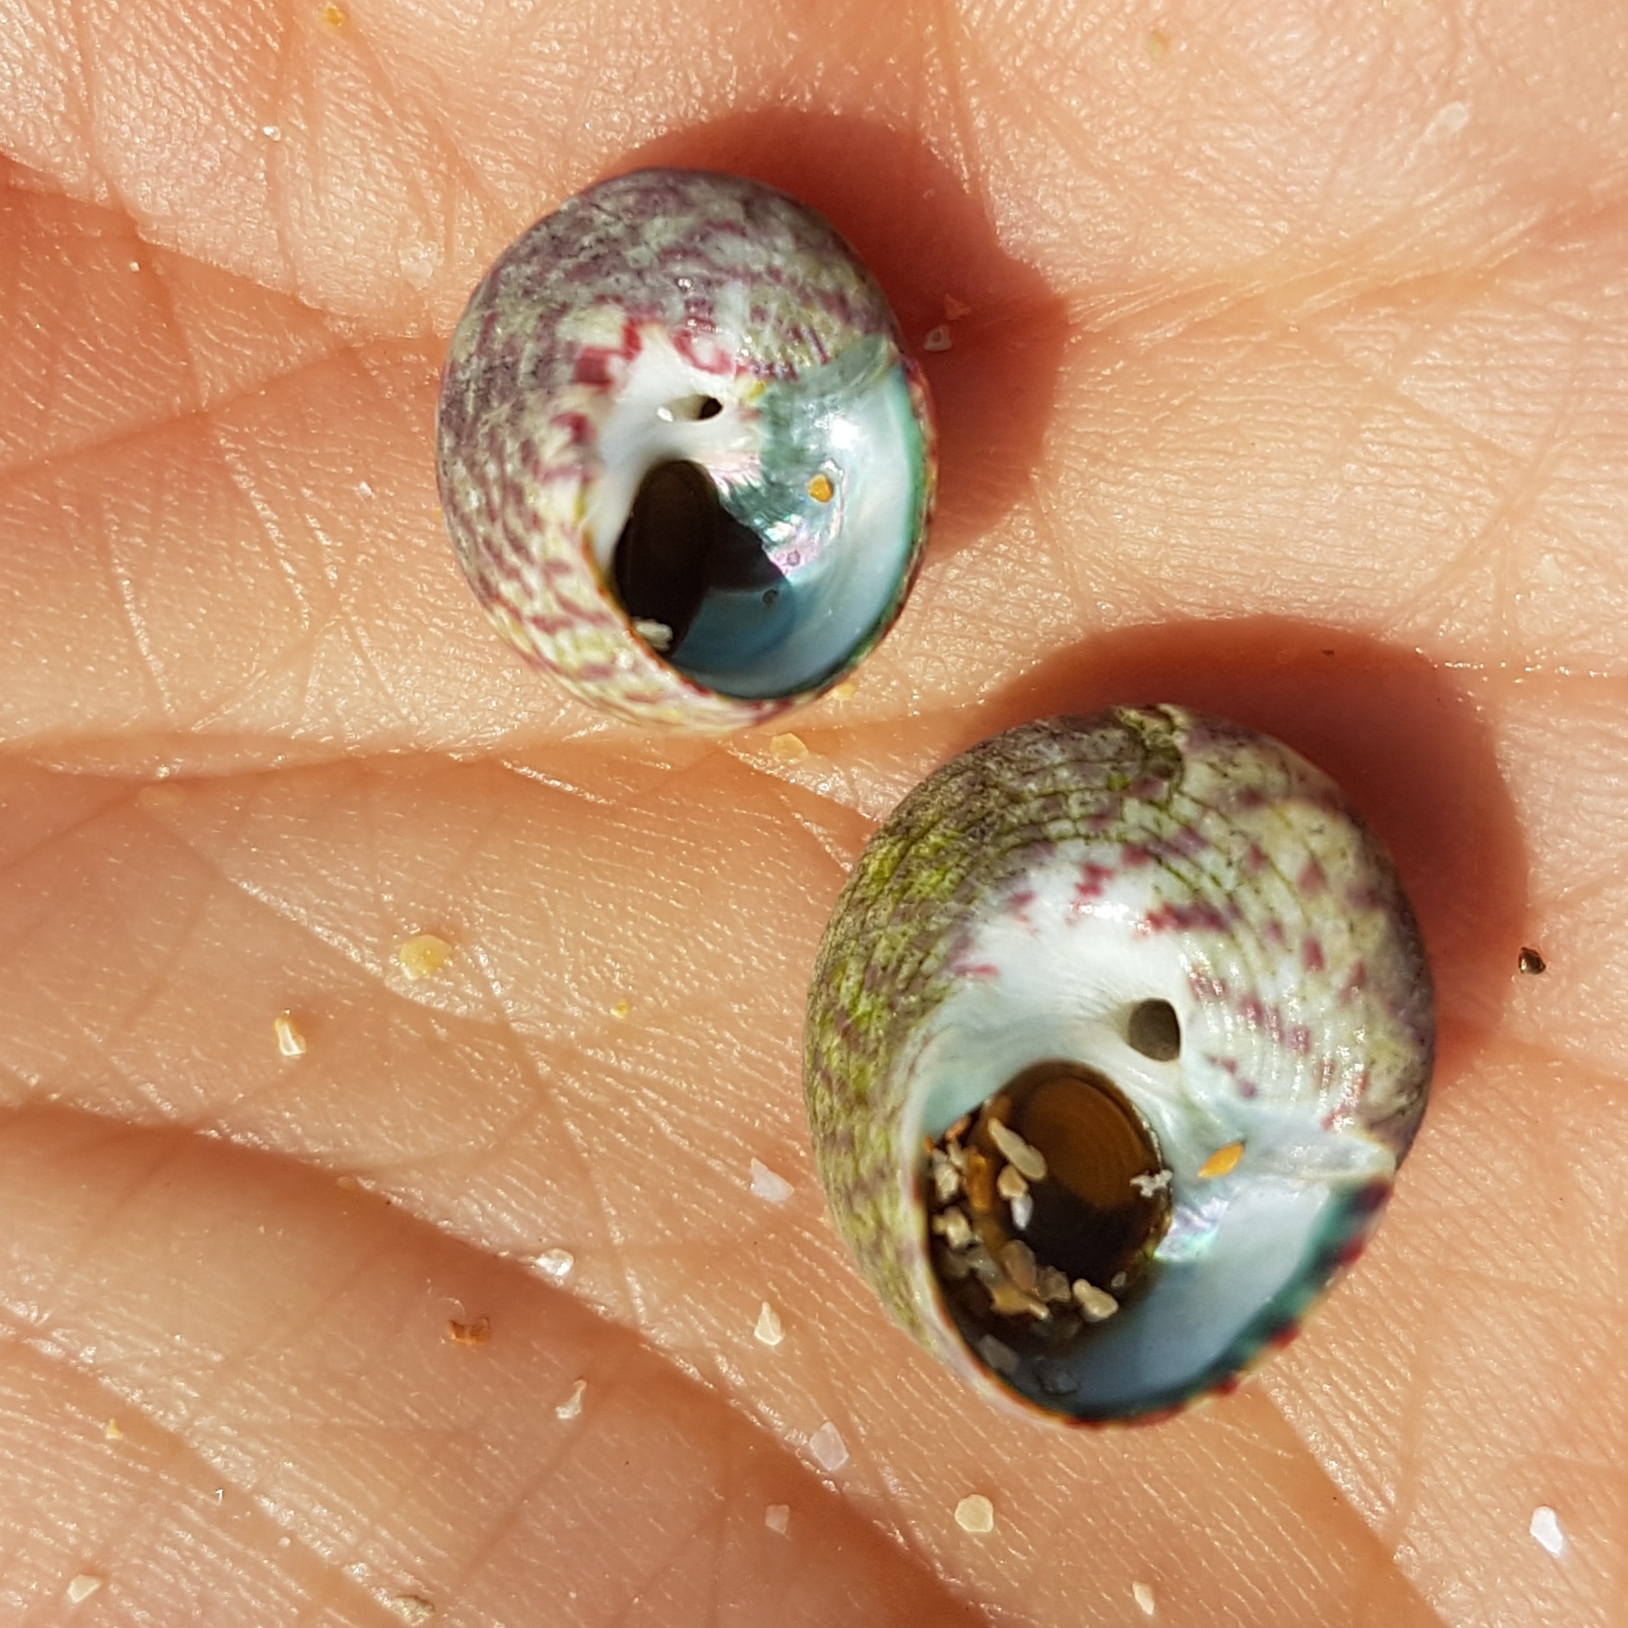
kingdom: Animalia
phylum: Mollusca
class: Gastropoda
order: Trochida
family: Trochidae
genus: Steromphala
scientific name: Steromphala umbilicalis
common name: Flat top shell
